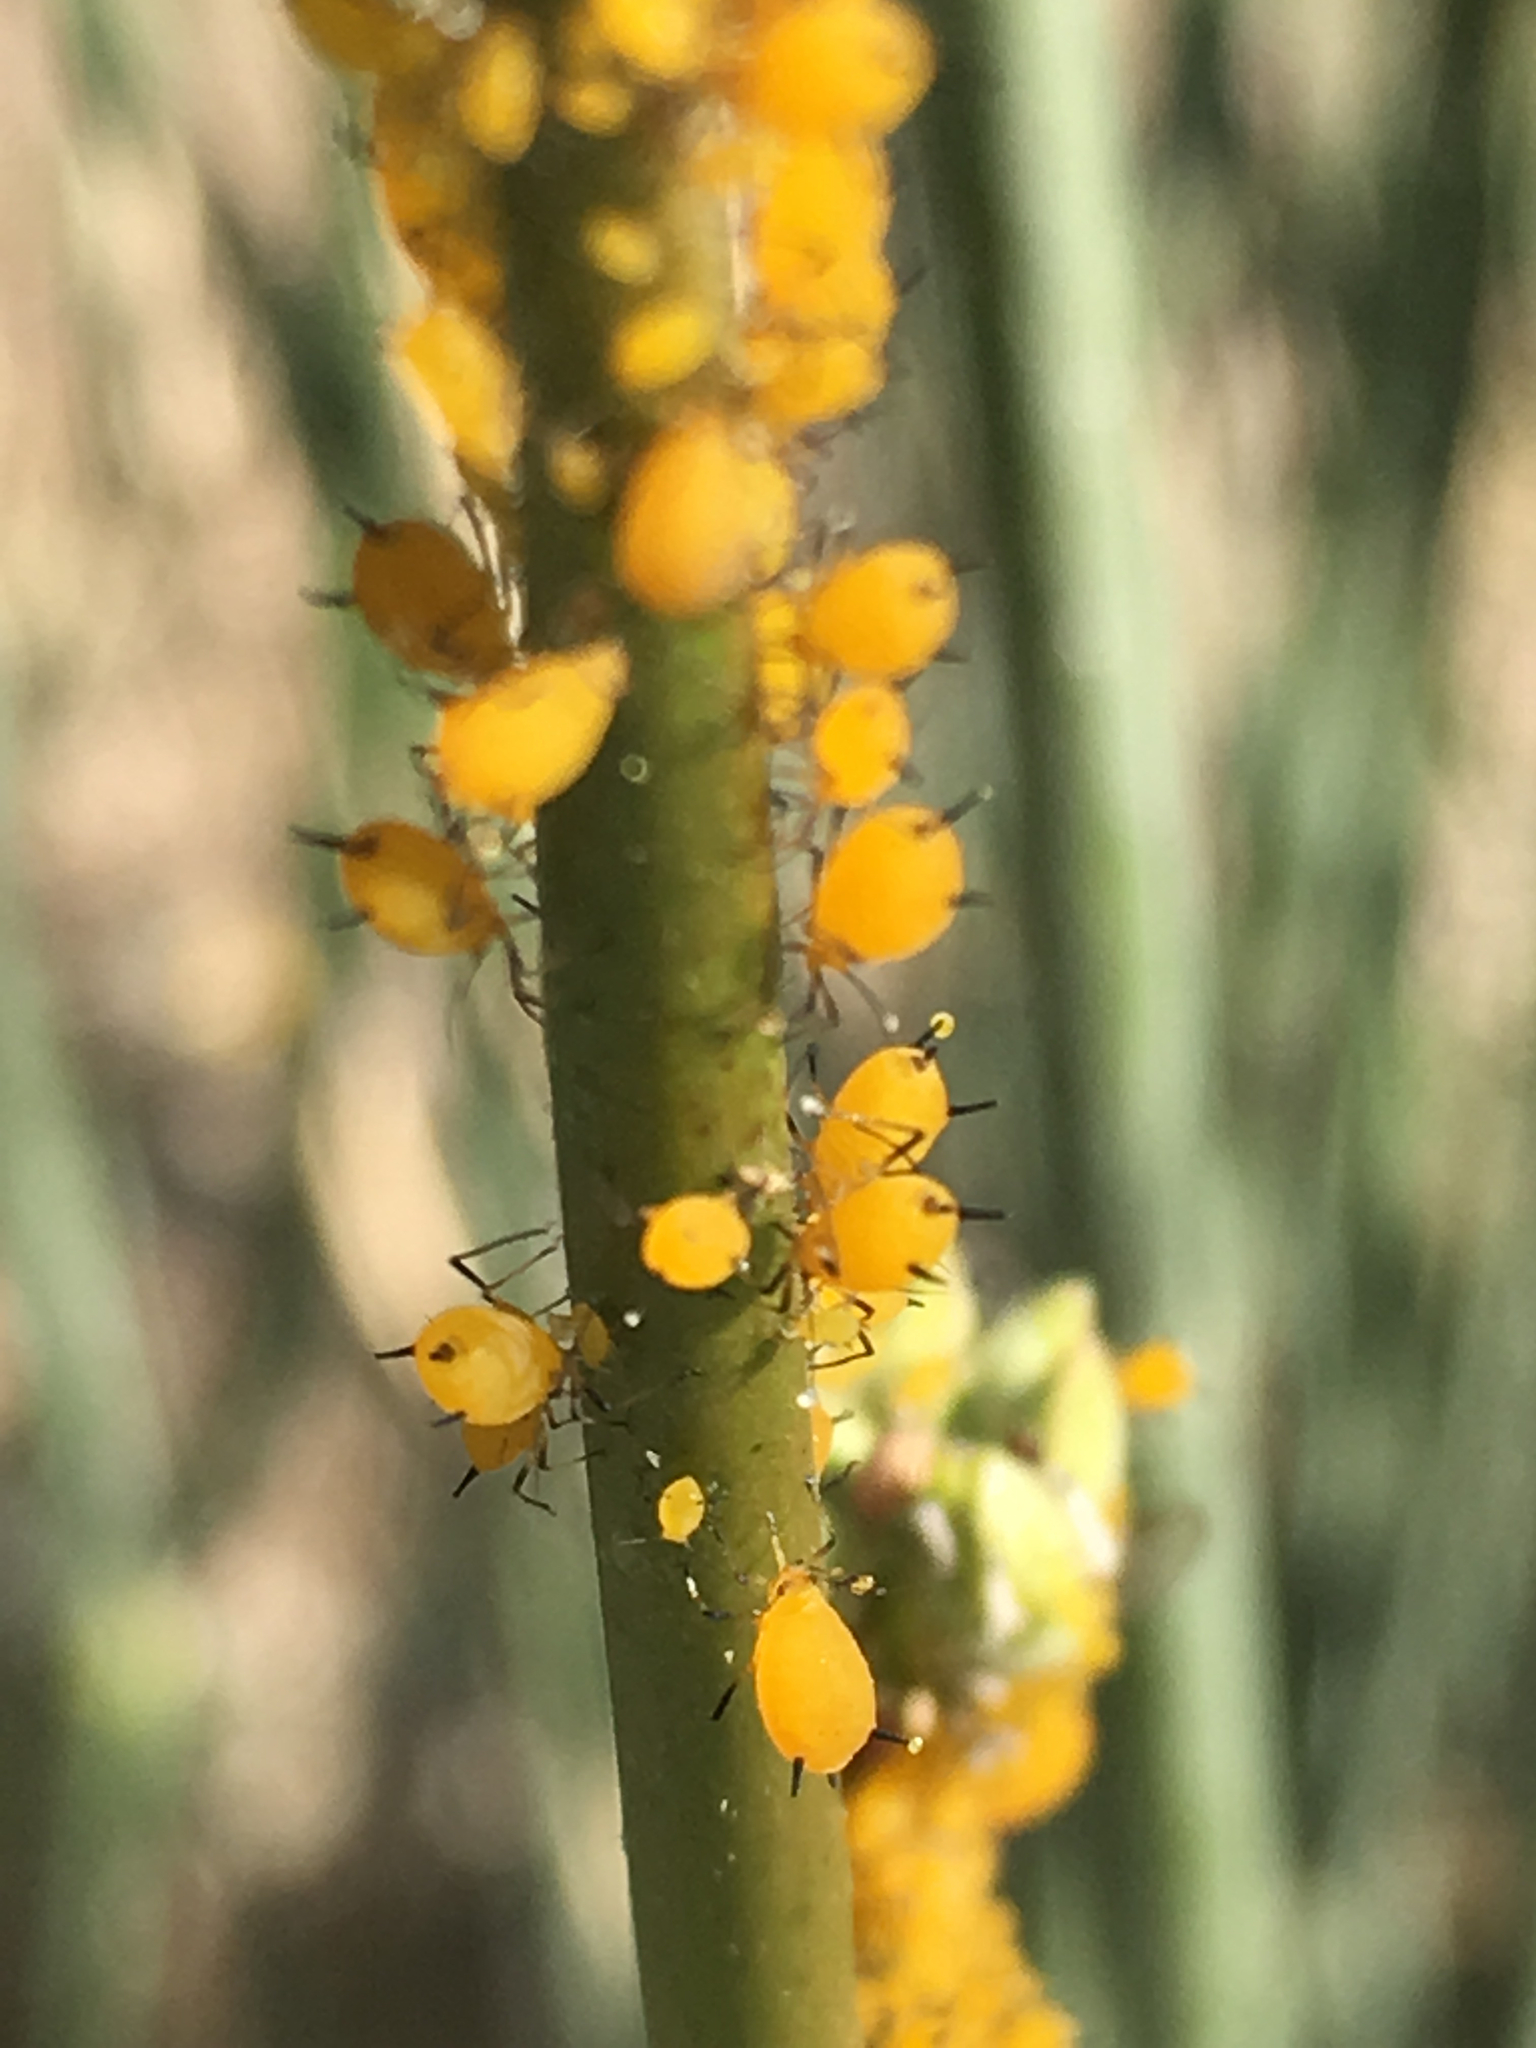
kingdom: Animalia
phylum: Arthropoda
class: Insecta
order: Hemiptera
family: Aphididae
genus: Aphis
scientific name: Aphis nerii
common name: Oleander aphid
